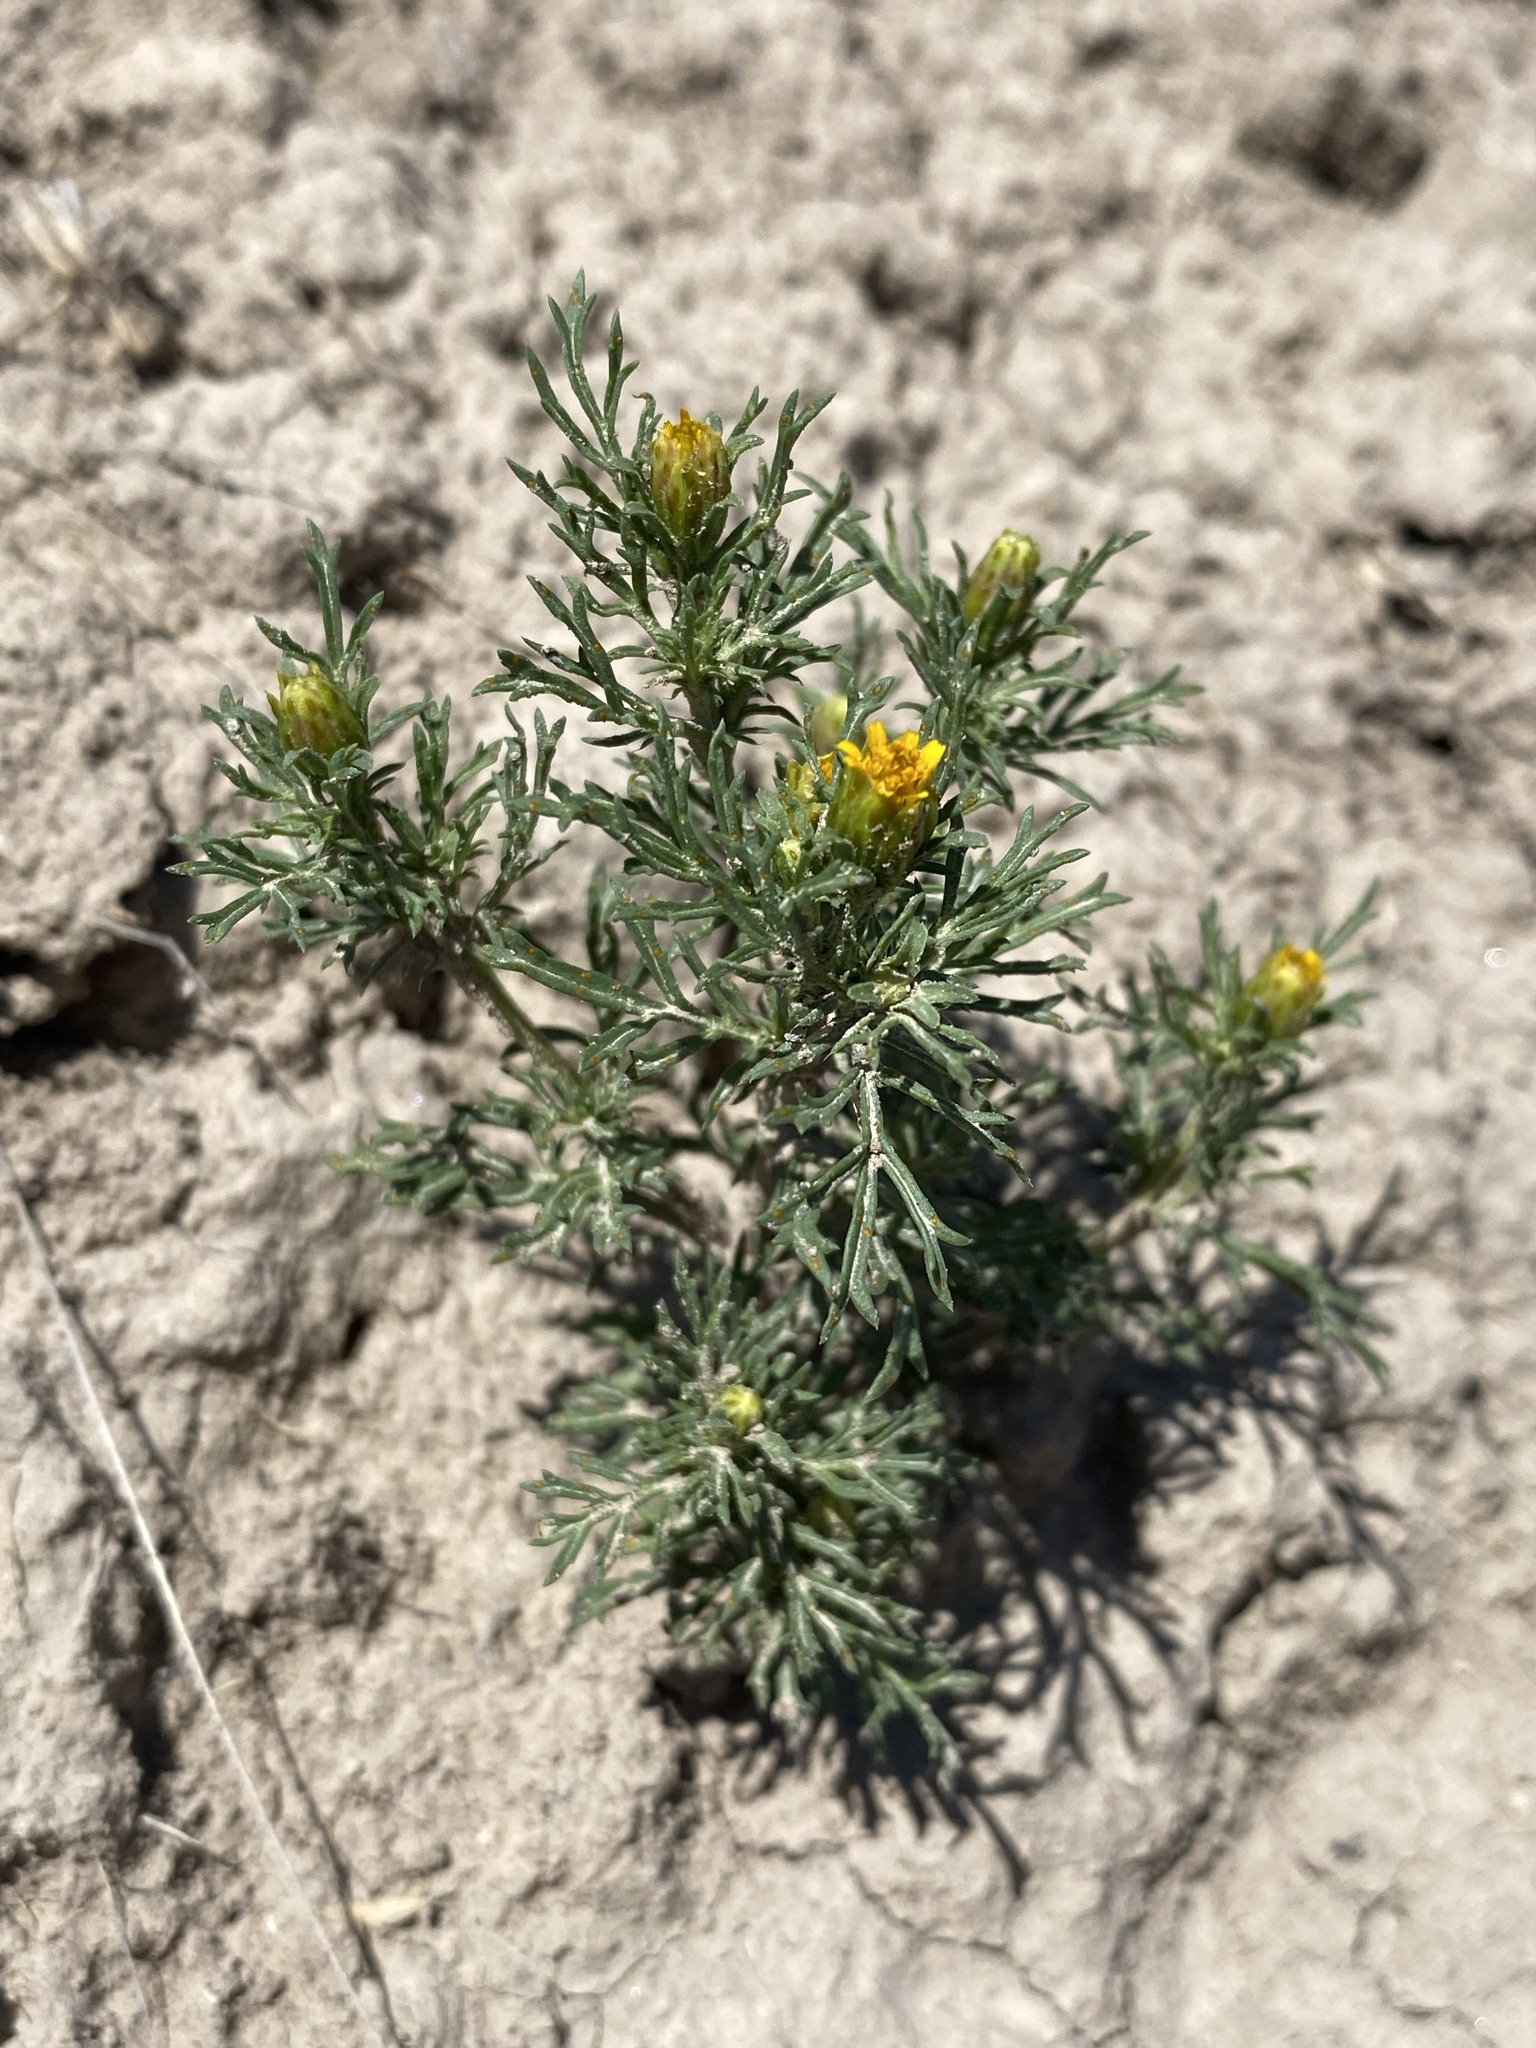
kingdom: Plantae
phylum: Tracheophyta
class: Magnoliopsida
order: Asterales
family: Asteraceae
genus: Dyssodia
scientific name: Dyssodia papposa
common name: Dogweed
